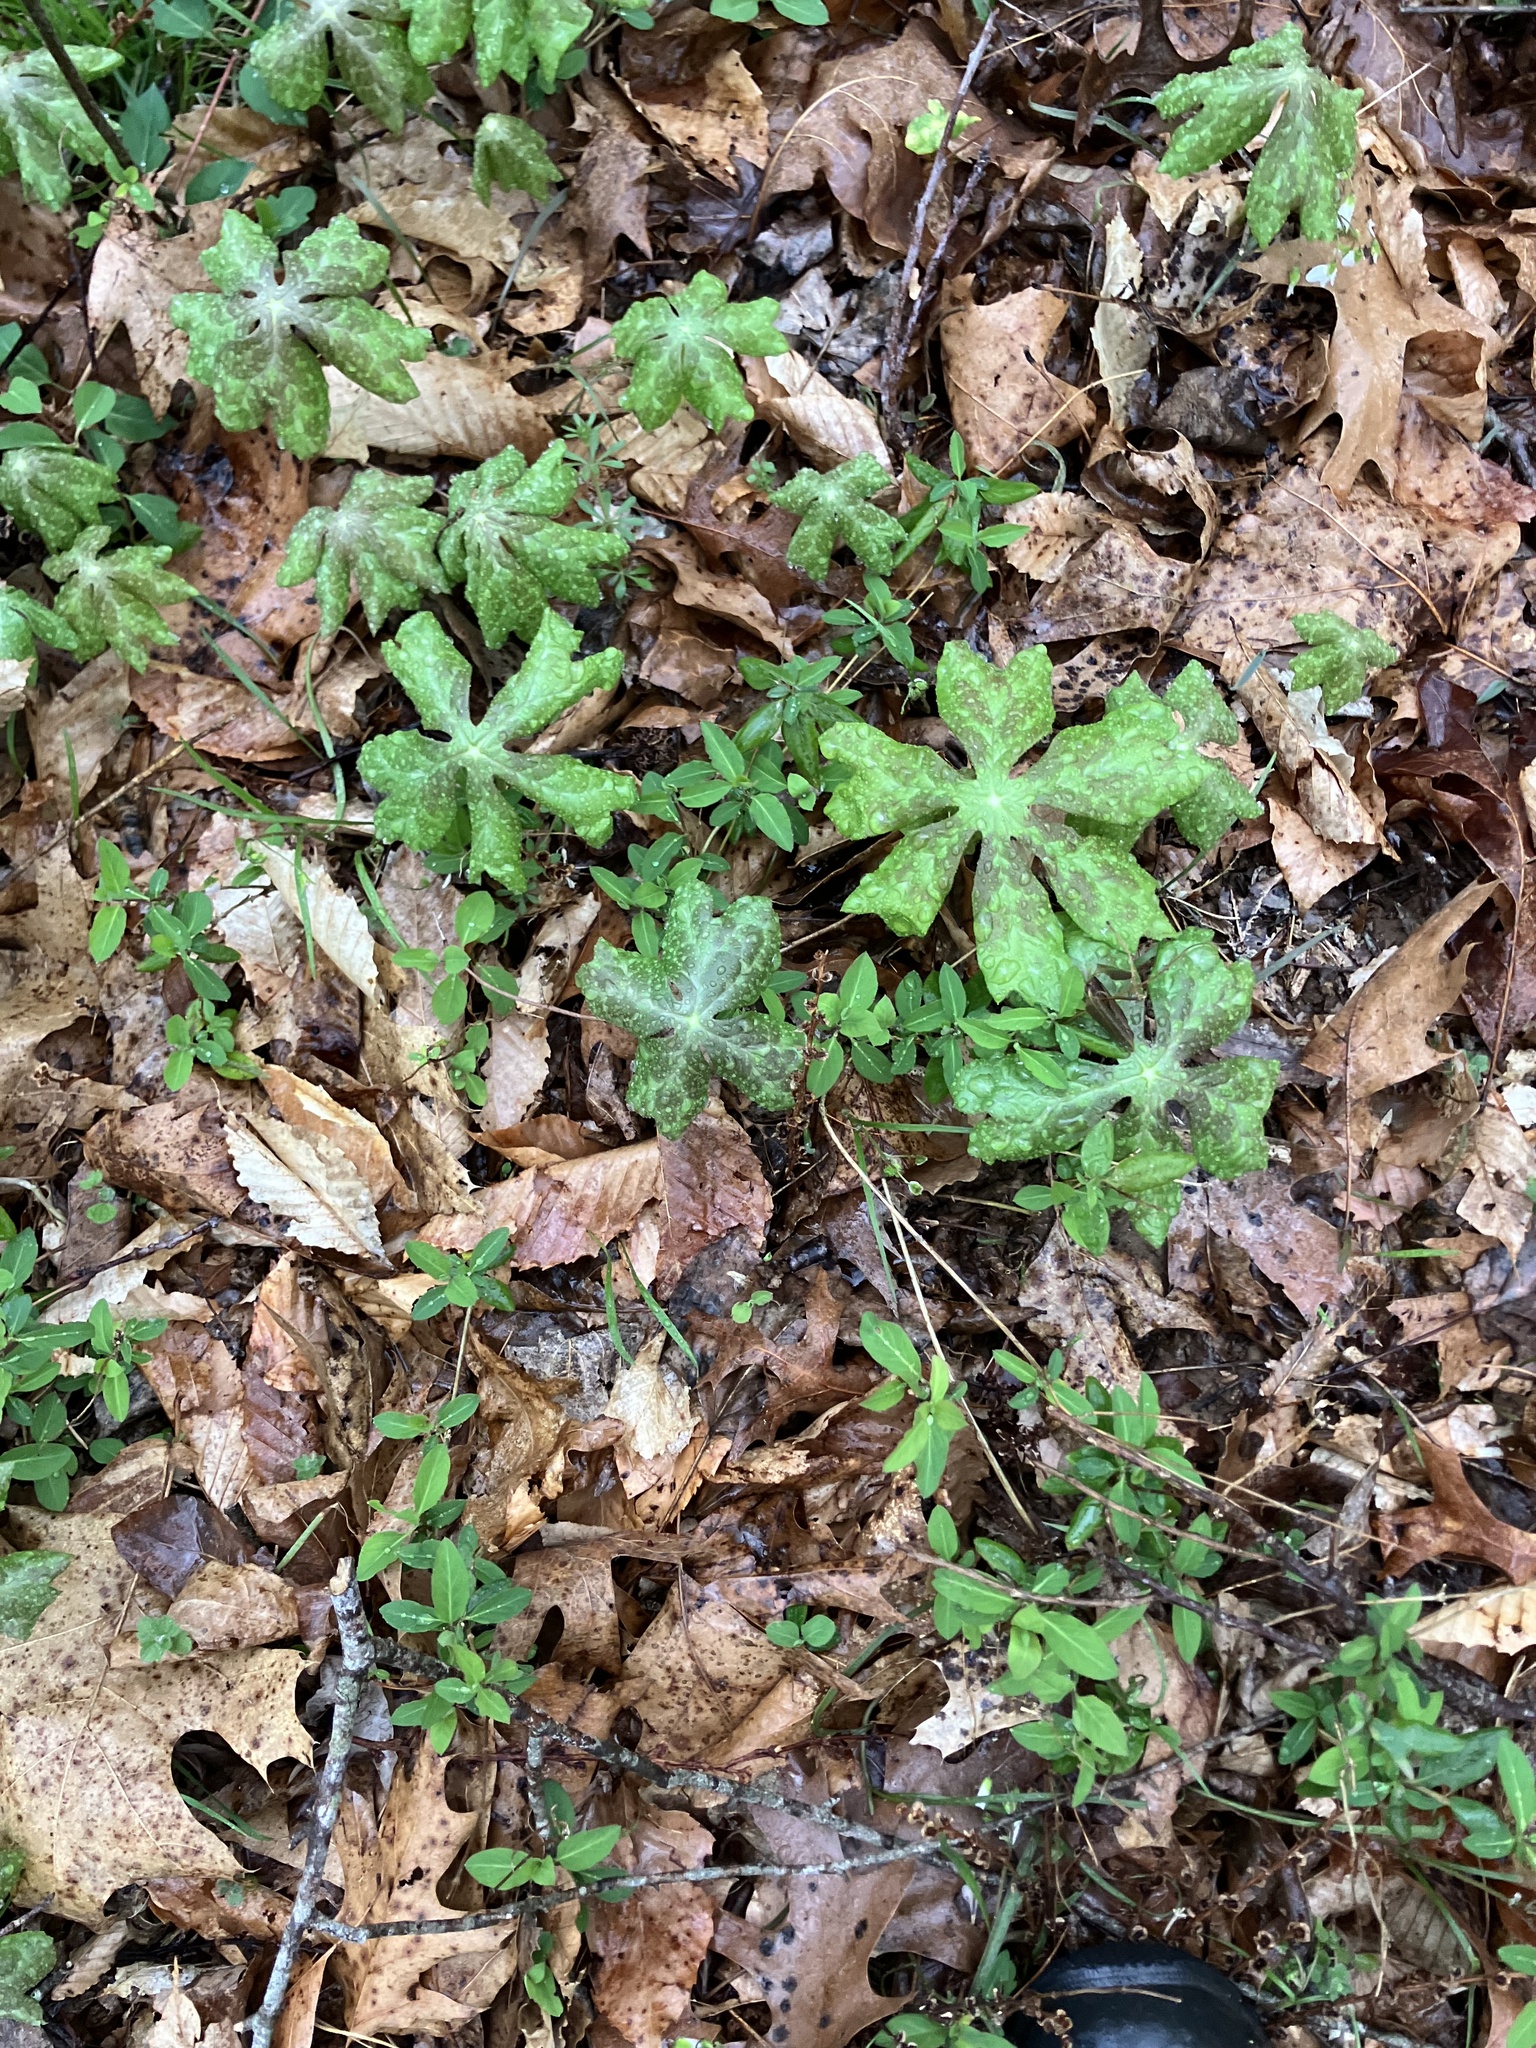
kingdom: Plantae
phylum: Tracheophyta
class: Magnoliopsida
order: Ranunculales
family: Berberidaceae
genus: Podophyllum
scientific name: Podophyllum peltatum
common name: Wild mandrake
